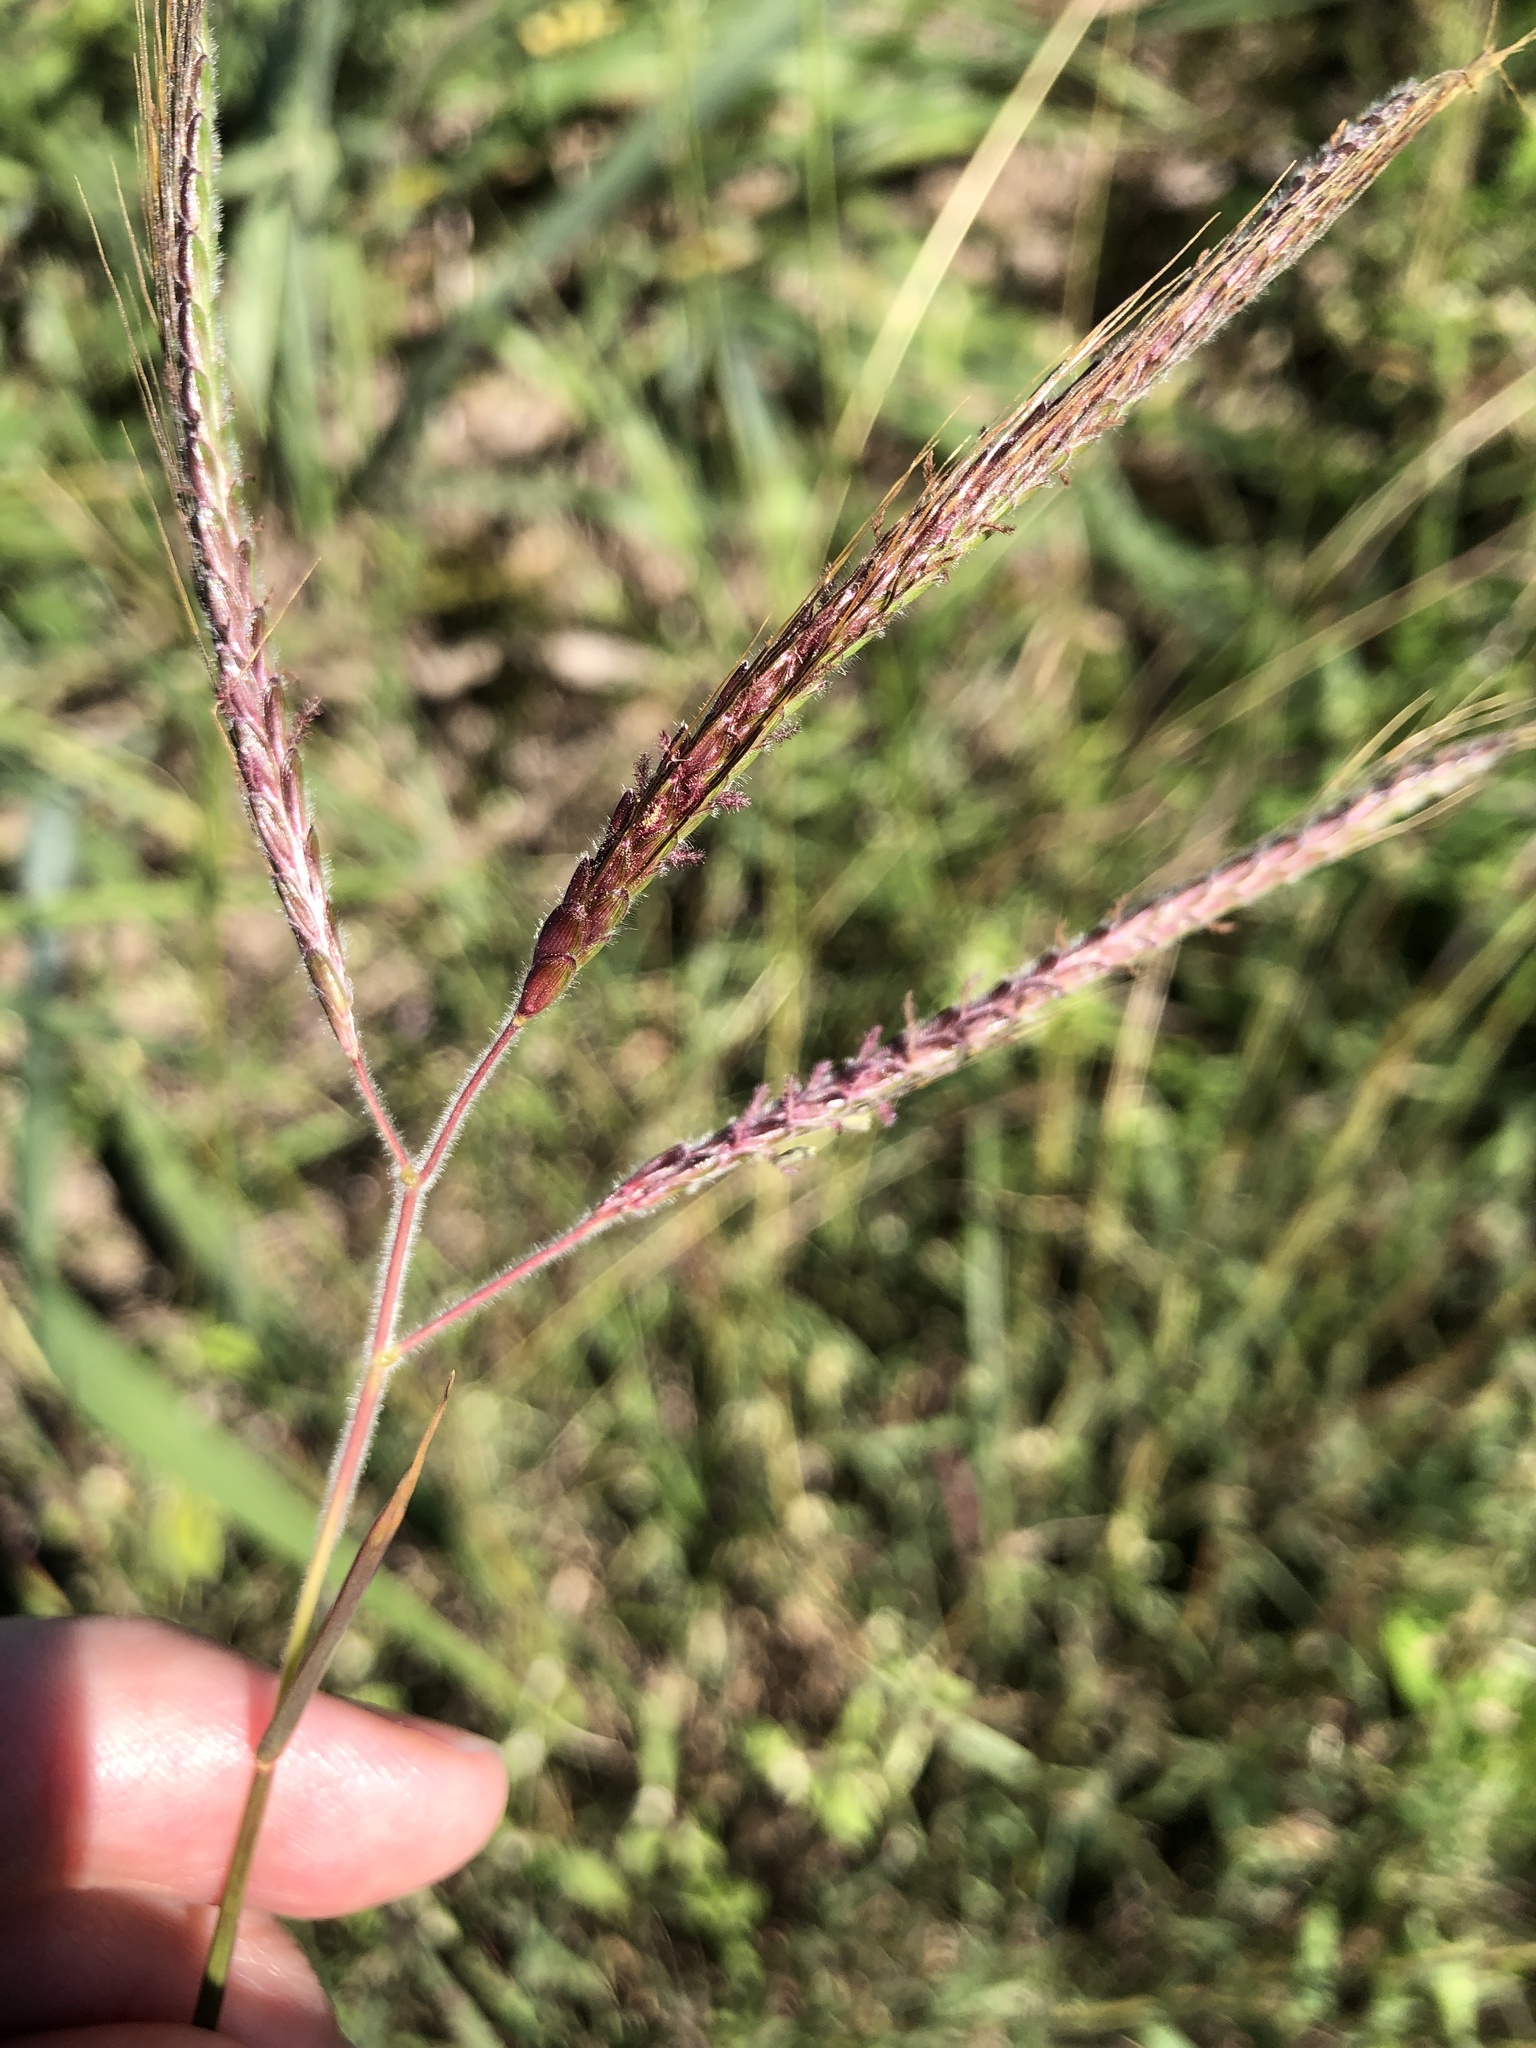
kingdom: Plantae
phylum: Tracheophyta
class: Liliopsida
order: Poales
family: Poaceae
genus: Dichanthium
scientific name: Dichanthium aristatum
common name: Angleton bluestem
